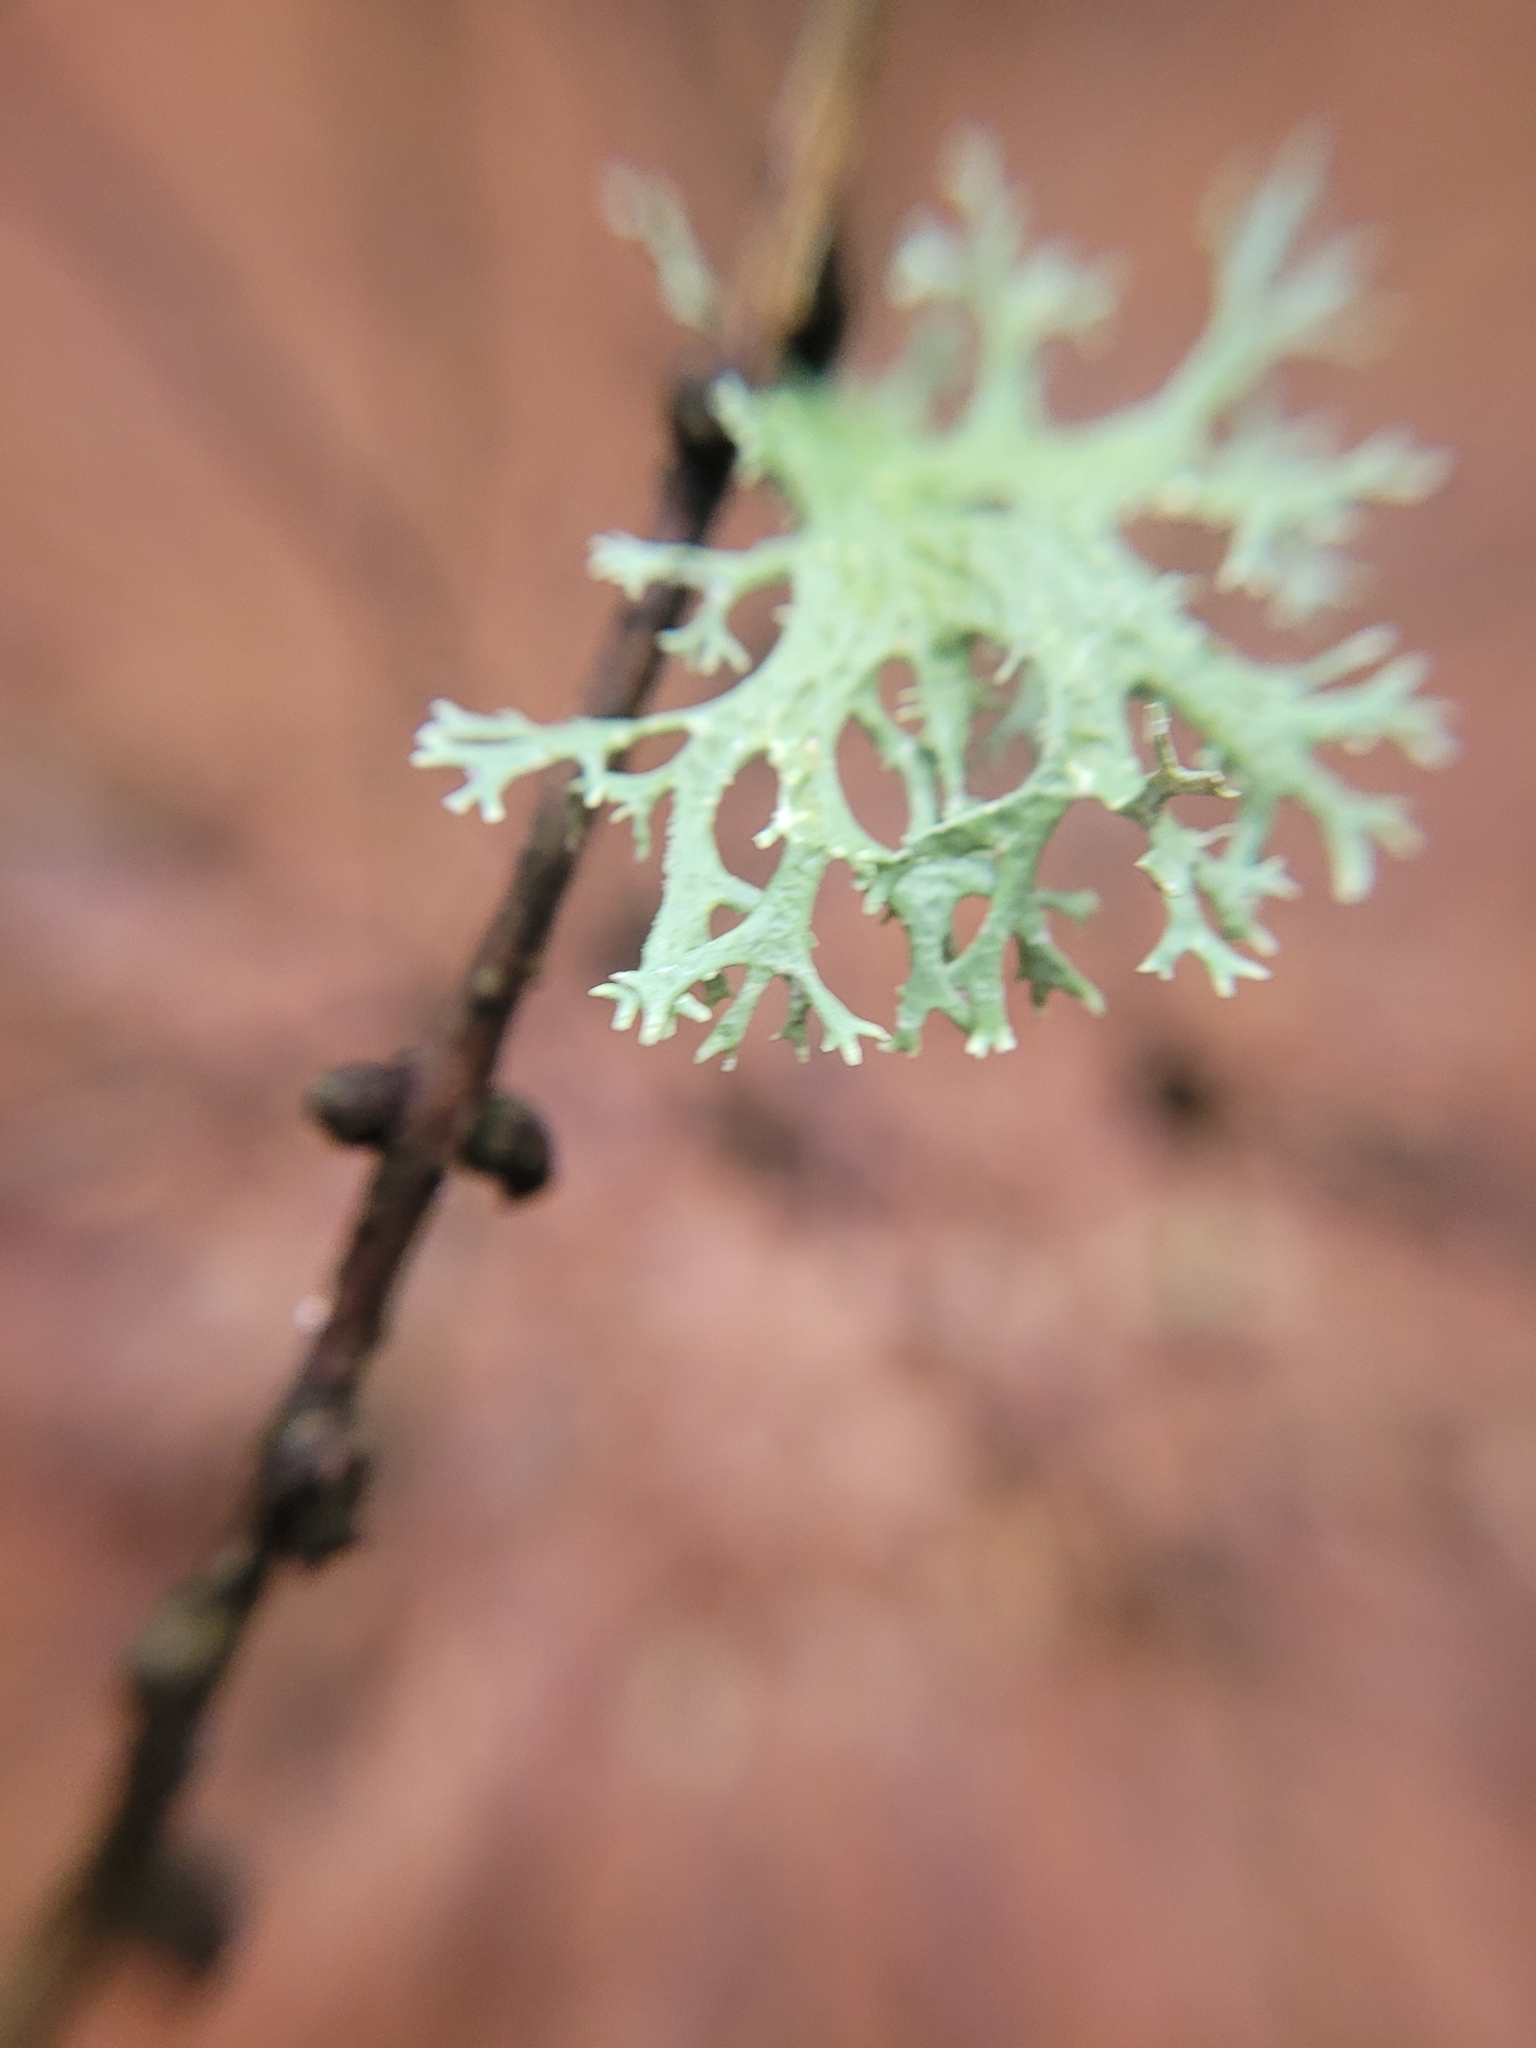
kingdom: Fungi
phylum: Ascomycota
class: Lecanoromycetes
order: Lecanorales
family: Parmeliaceae
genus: Evernia
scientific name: Evernia prunastri
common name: Oak moss
